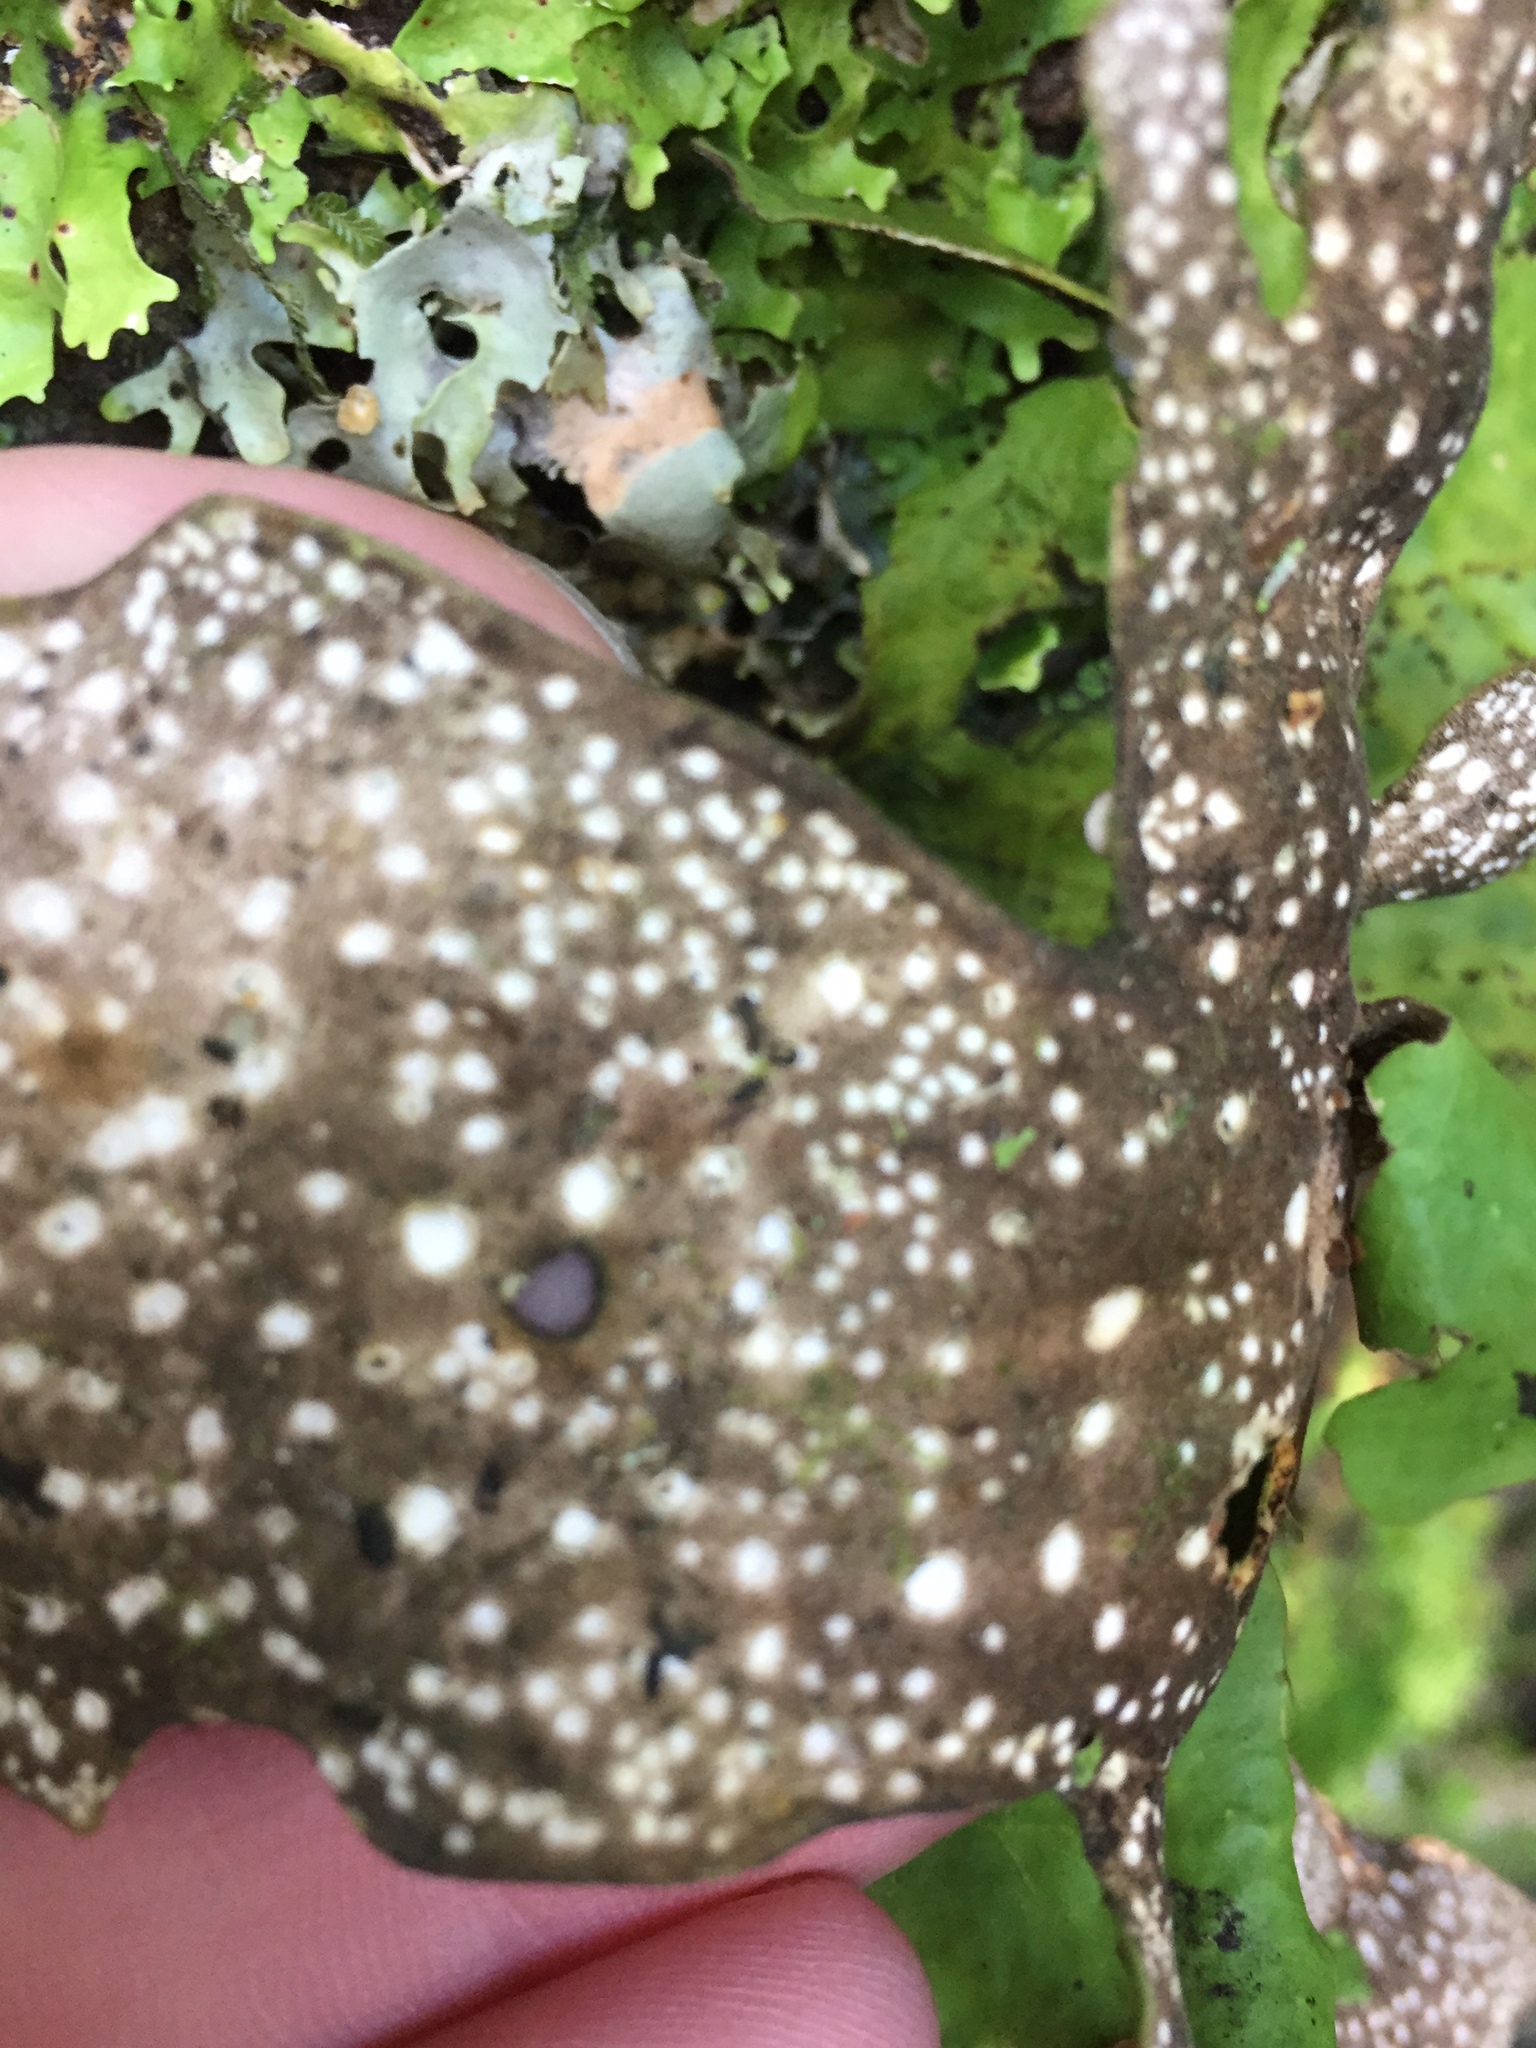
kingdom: Fungi
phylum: Ascomycota
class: Lecanoromycetes
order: Peltigerales
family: Lobariaceae
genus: Sticta
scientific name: Sticta latifrons
